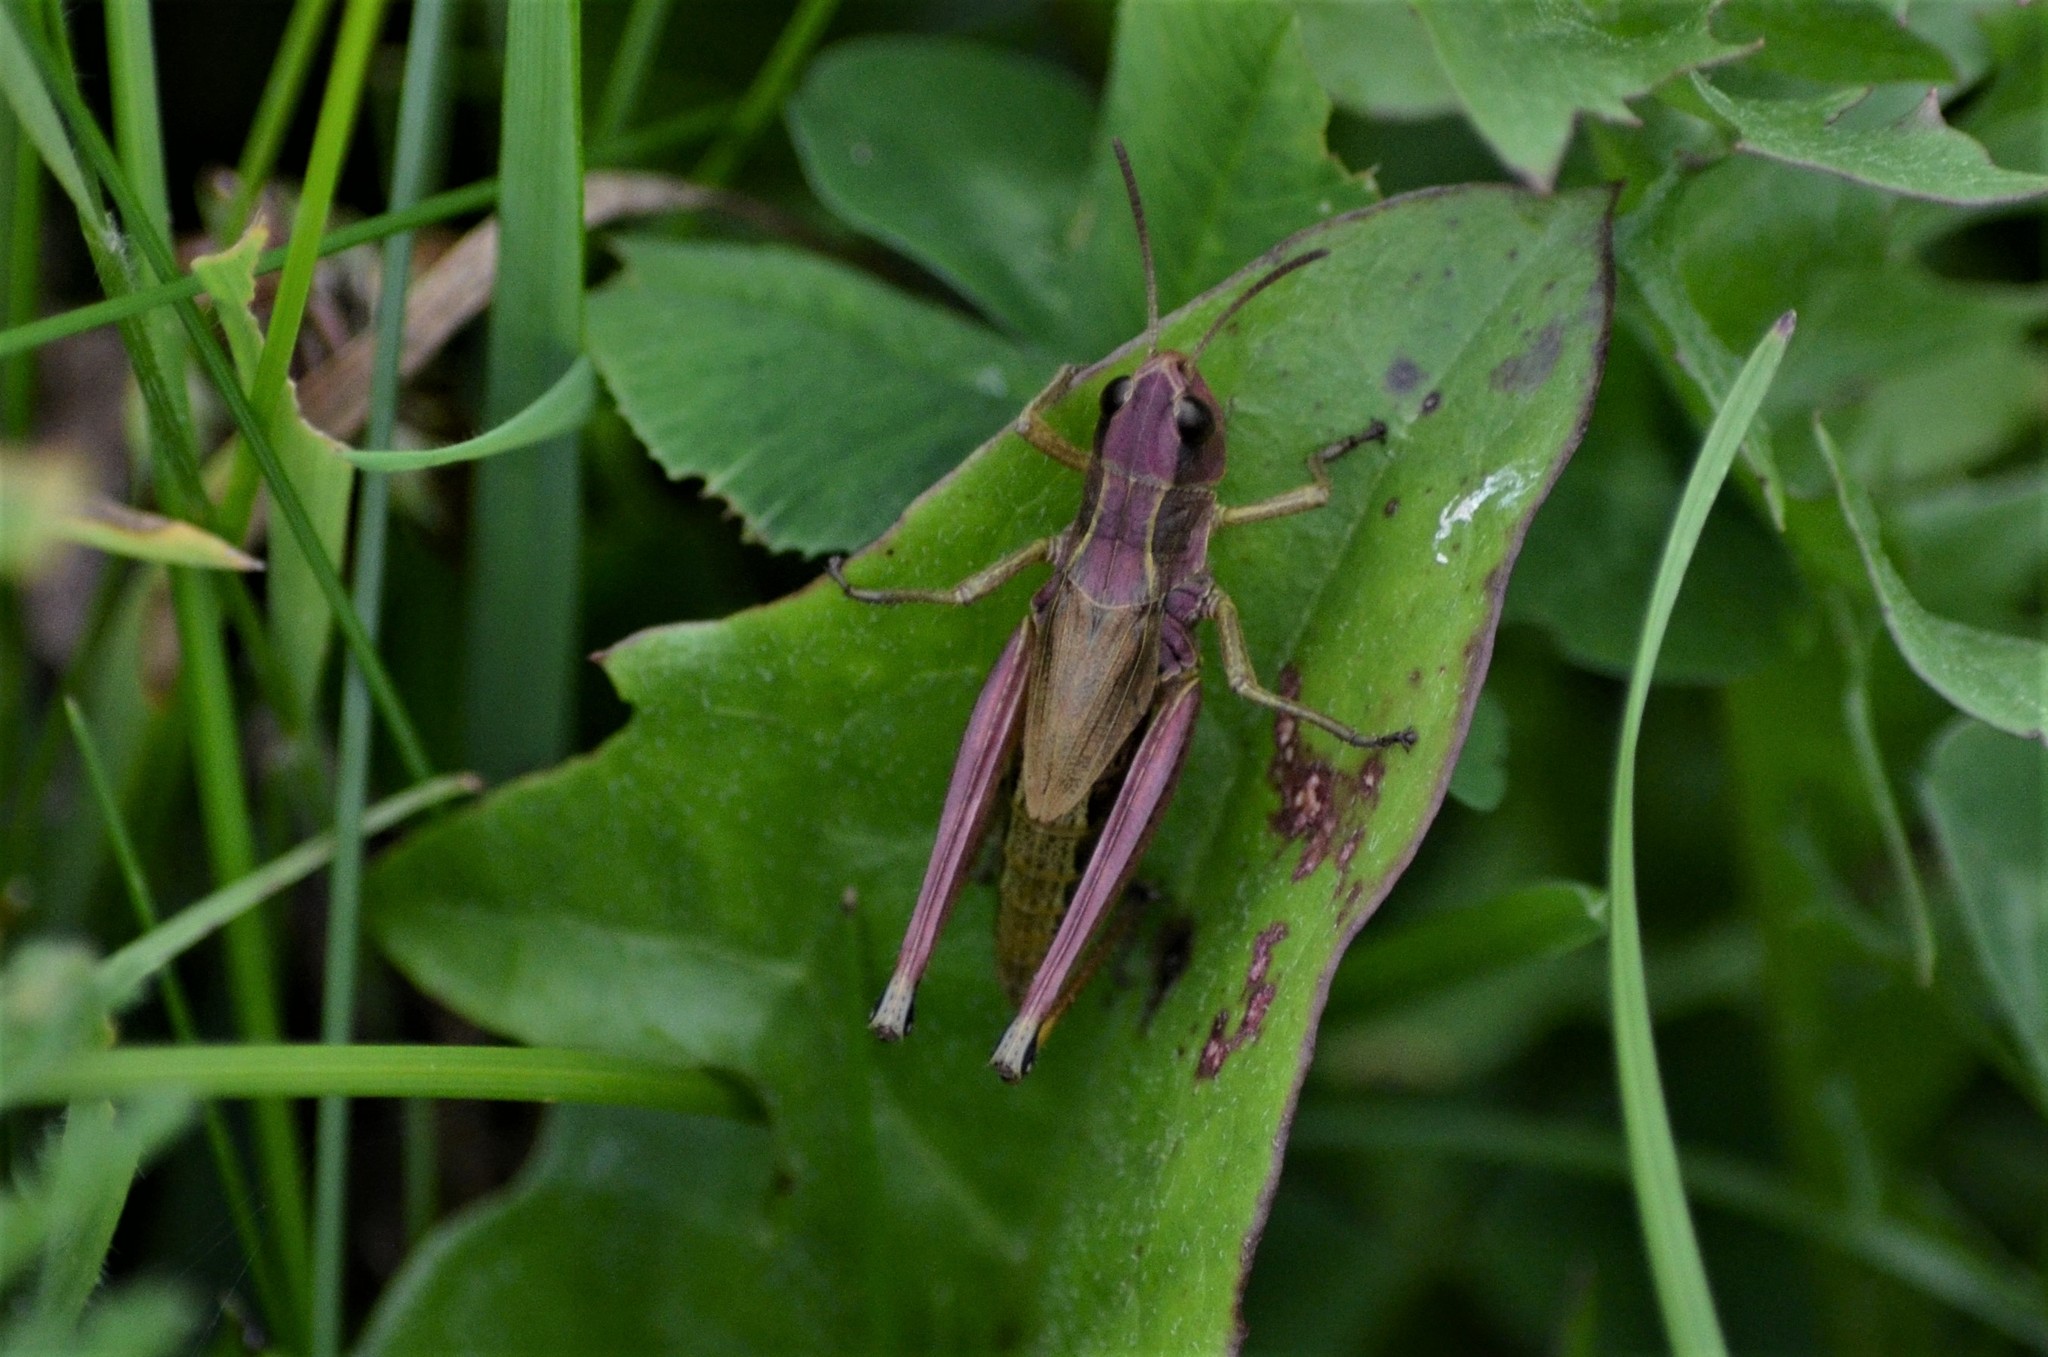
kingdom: Animalia
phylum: Arthropoda
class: Insecta
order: Orthoptera
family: Acrididae
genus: Pseudochorthippus
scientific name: Pseudochorthippus parallelus
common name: Meadow grasshopper
